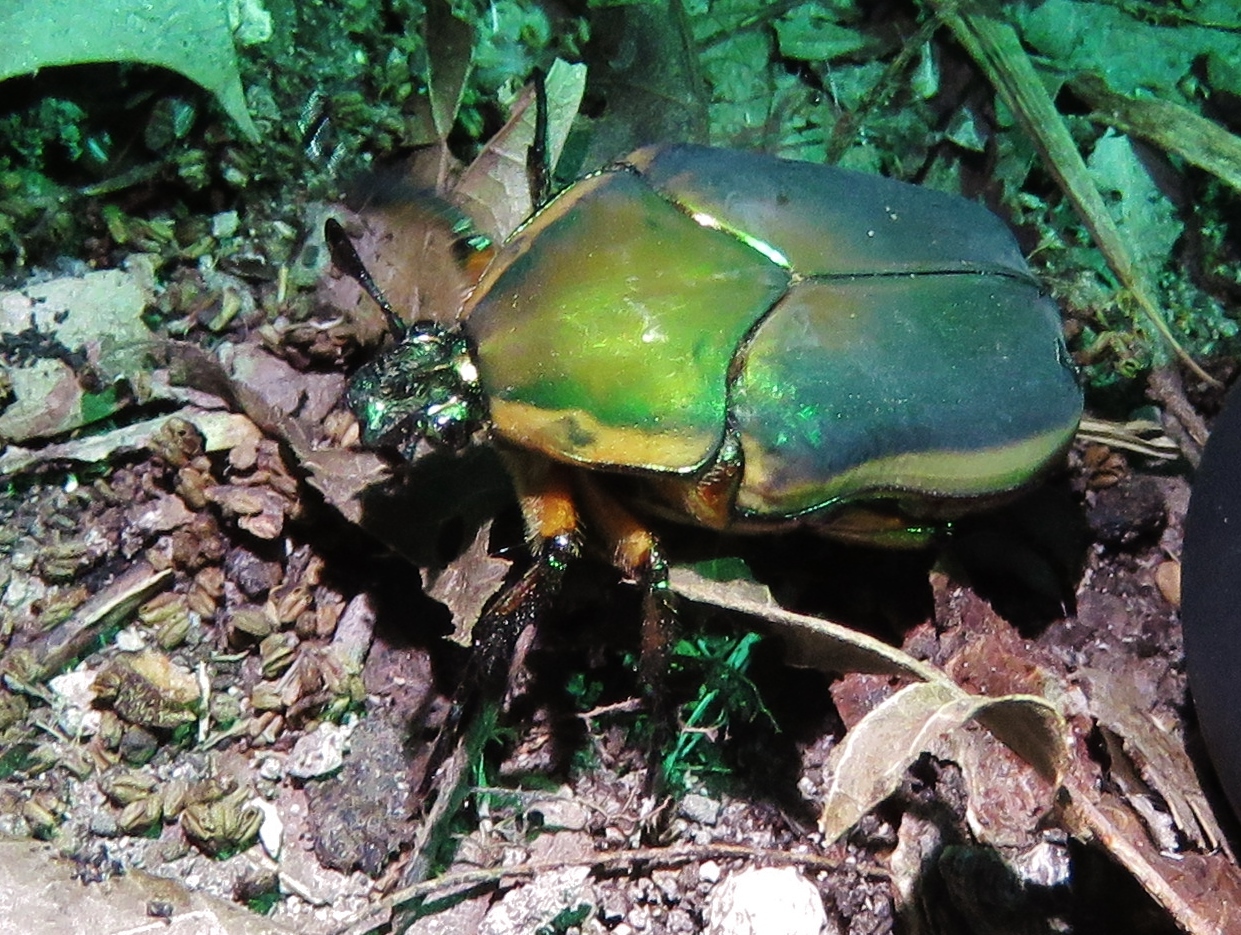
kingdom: Animalia
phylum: Arthropoda
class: Insecta
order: Coleoptera
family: Scarabaeidae
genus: Cotinis
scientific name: Cotinis nitida
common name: Common green june beetle
